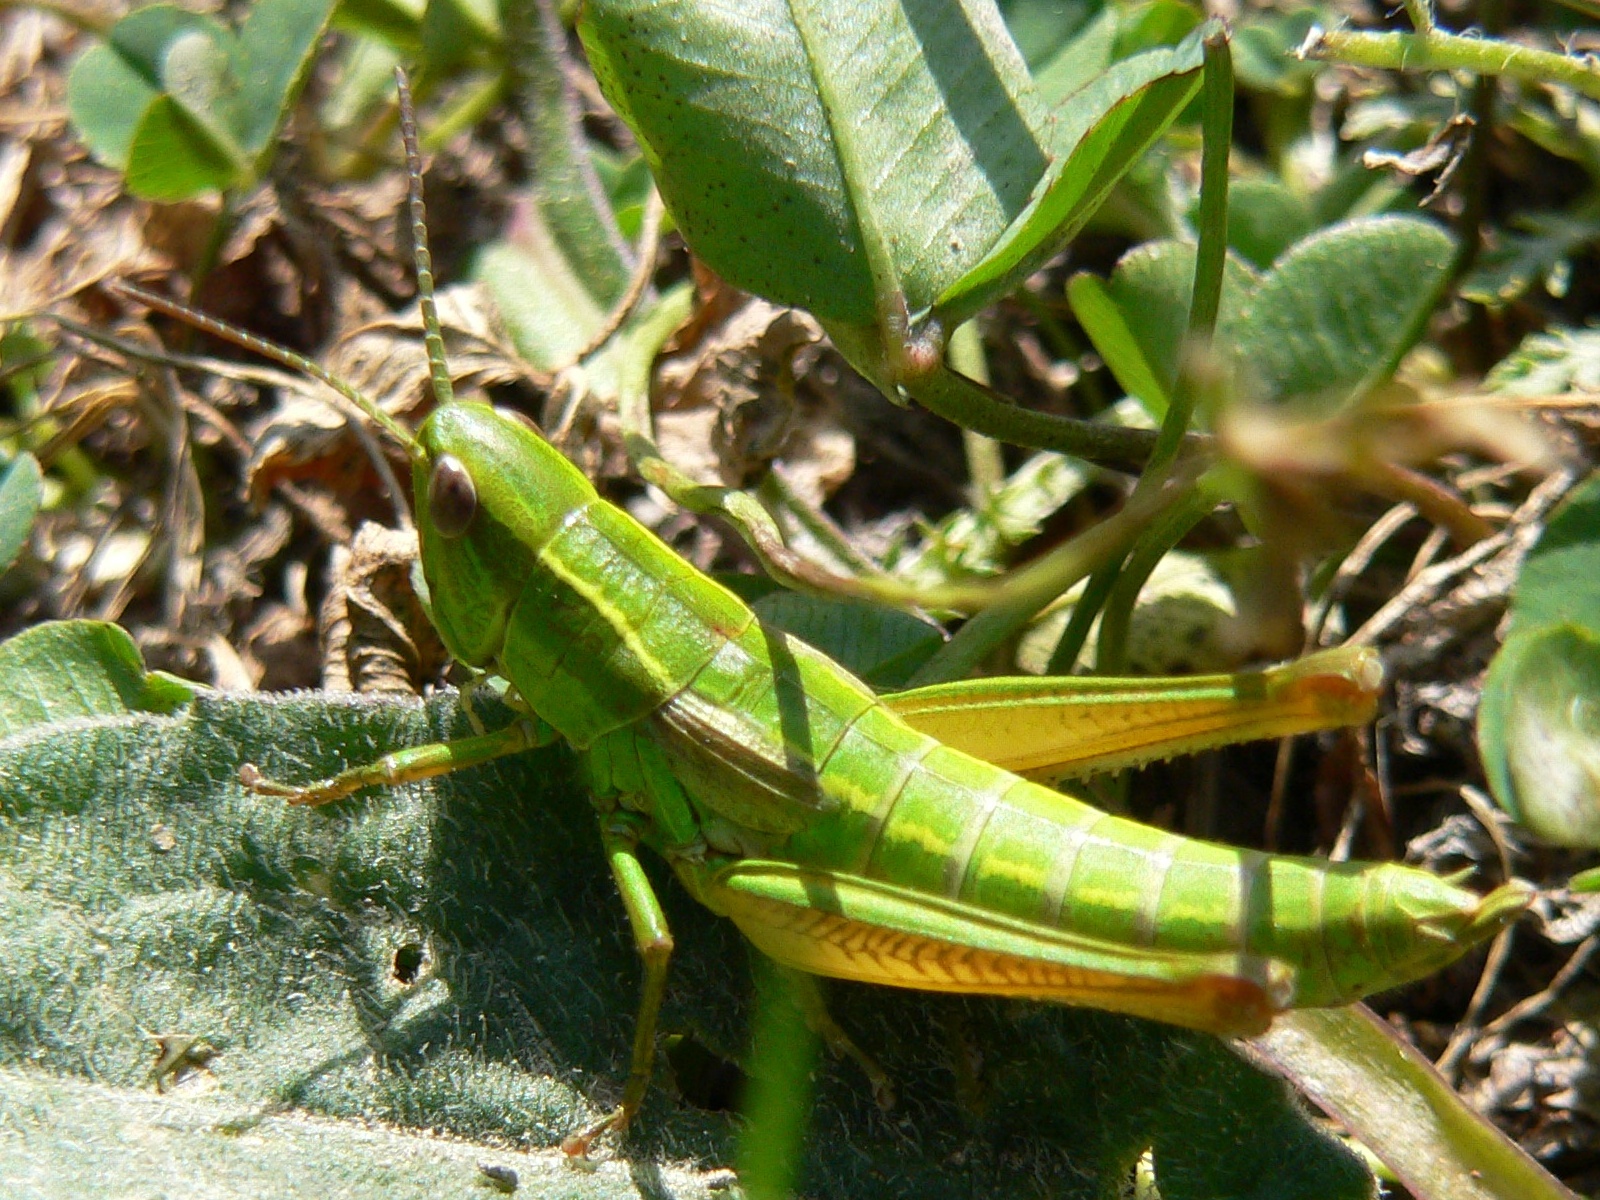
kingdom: Animalia
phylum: Arthropoda
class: Insecta
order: Orthoptera
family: Acrididae
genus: Euthystira
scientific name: Euthystira brachyptera
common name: Small gold grasshopper
